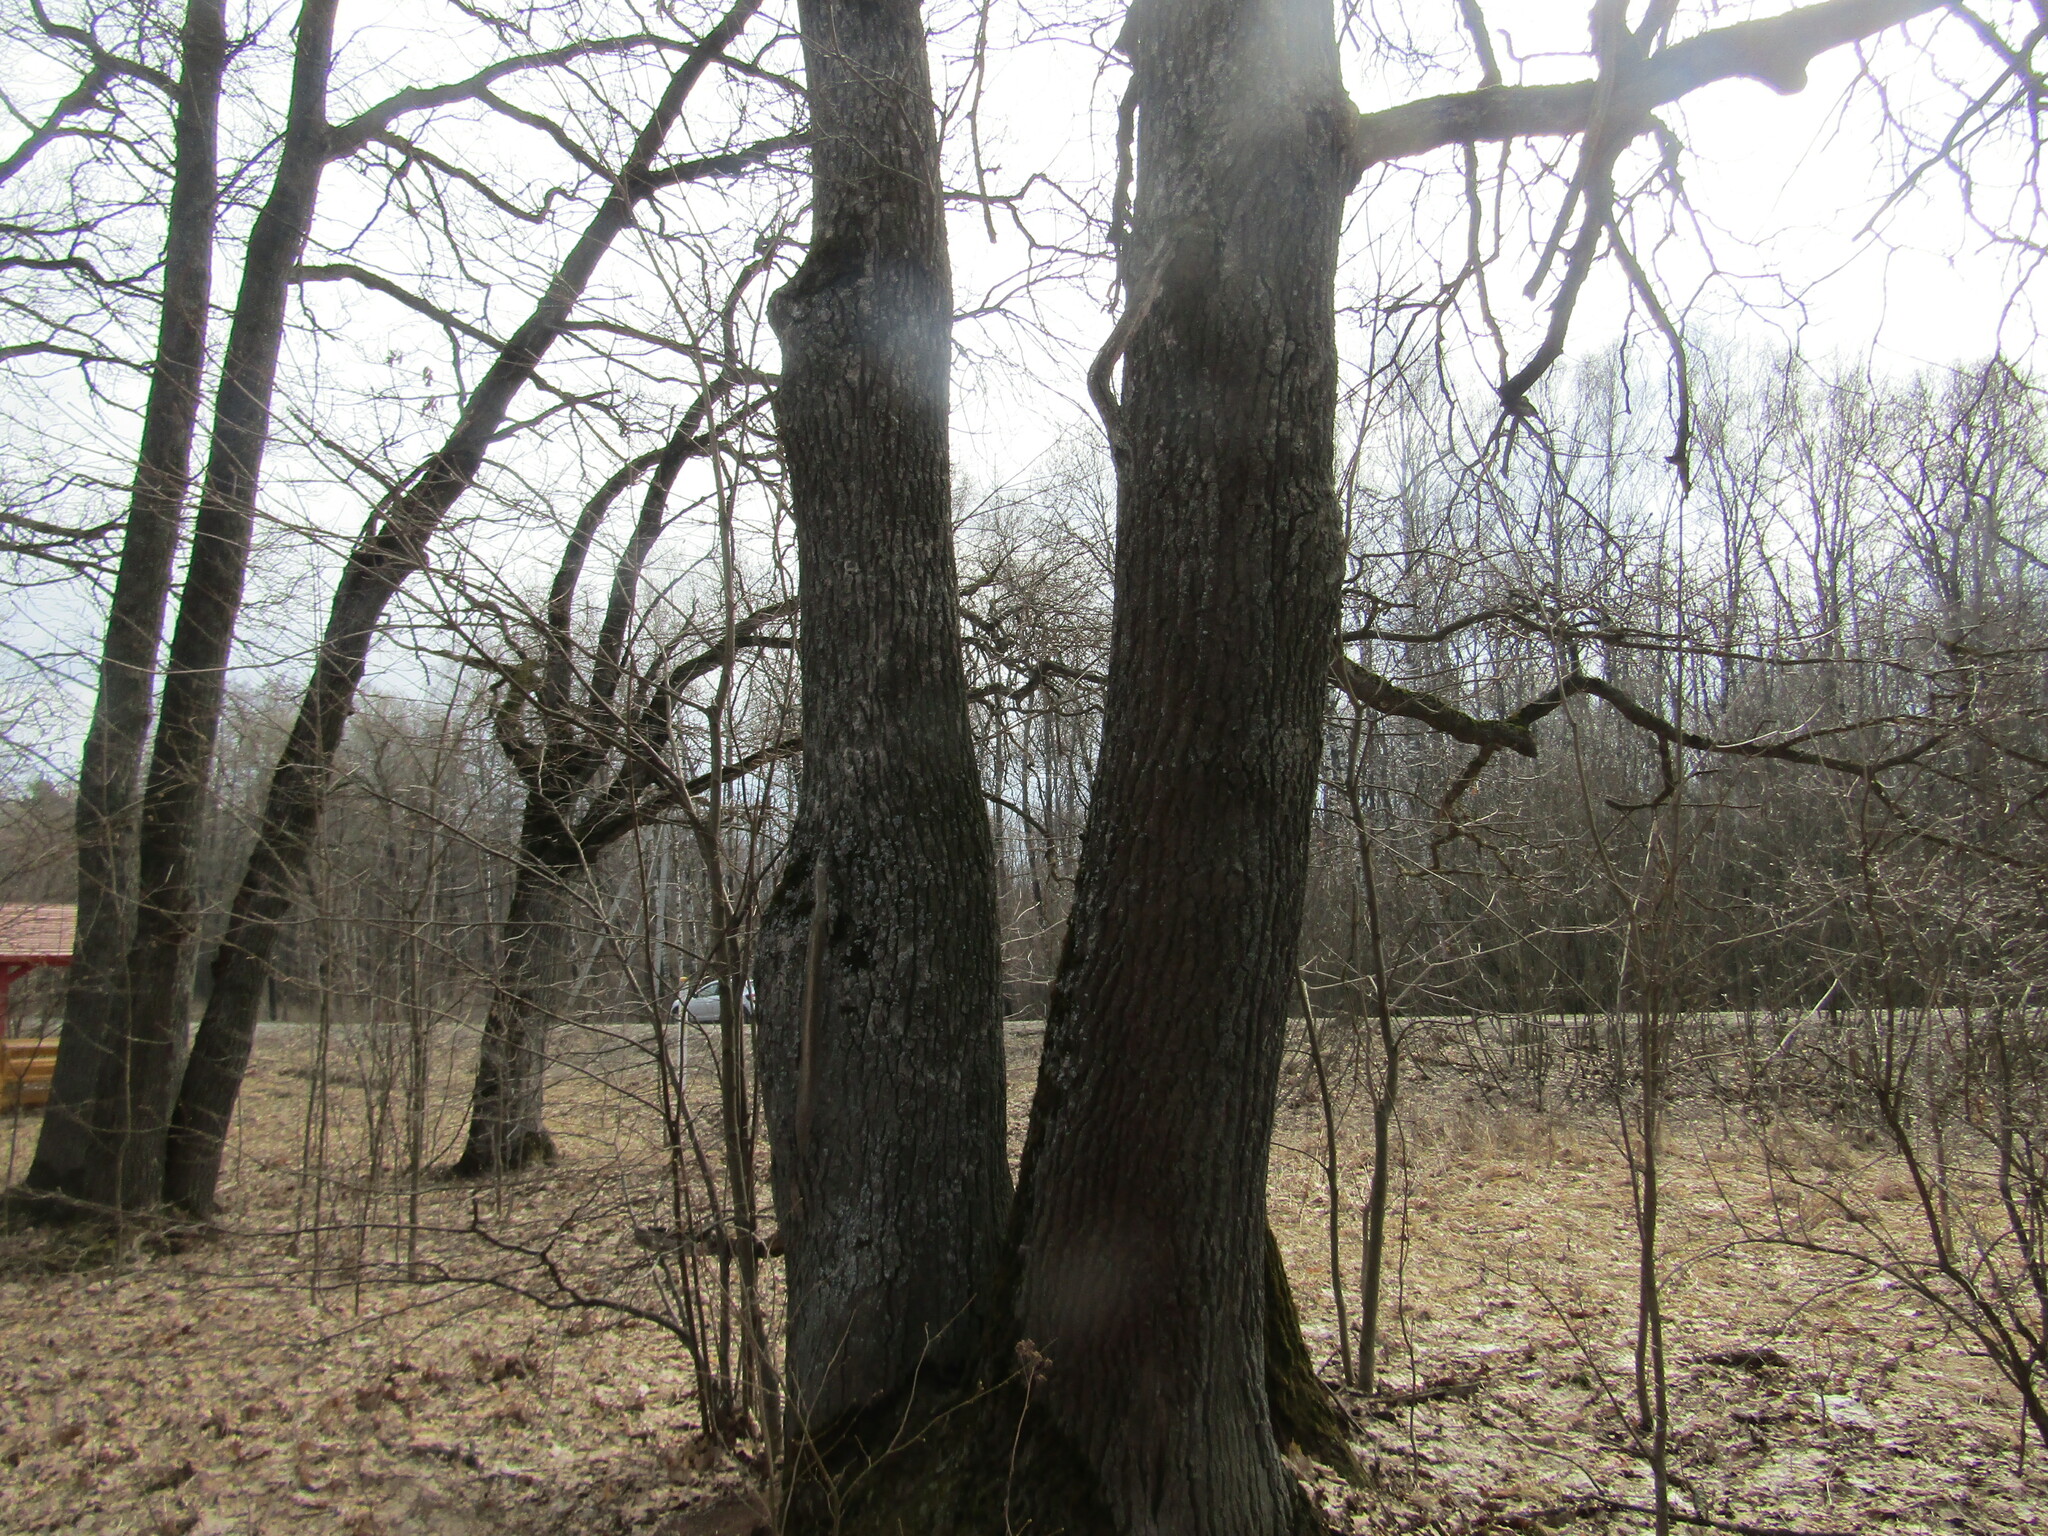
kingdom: Plantae
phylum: Tracheophyta
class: Magnoliopsida
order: Fagales
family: Fagaceae
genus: Quercus
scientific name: Quercus robur
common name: Pedunculate oak
